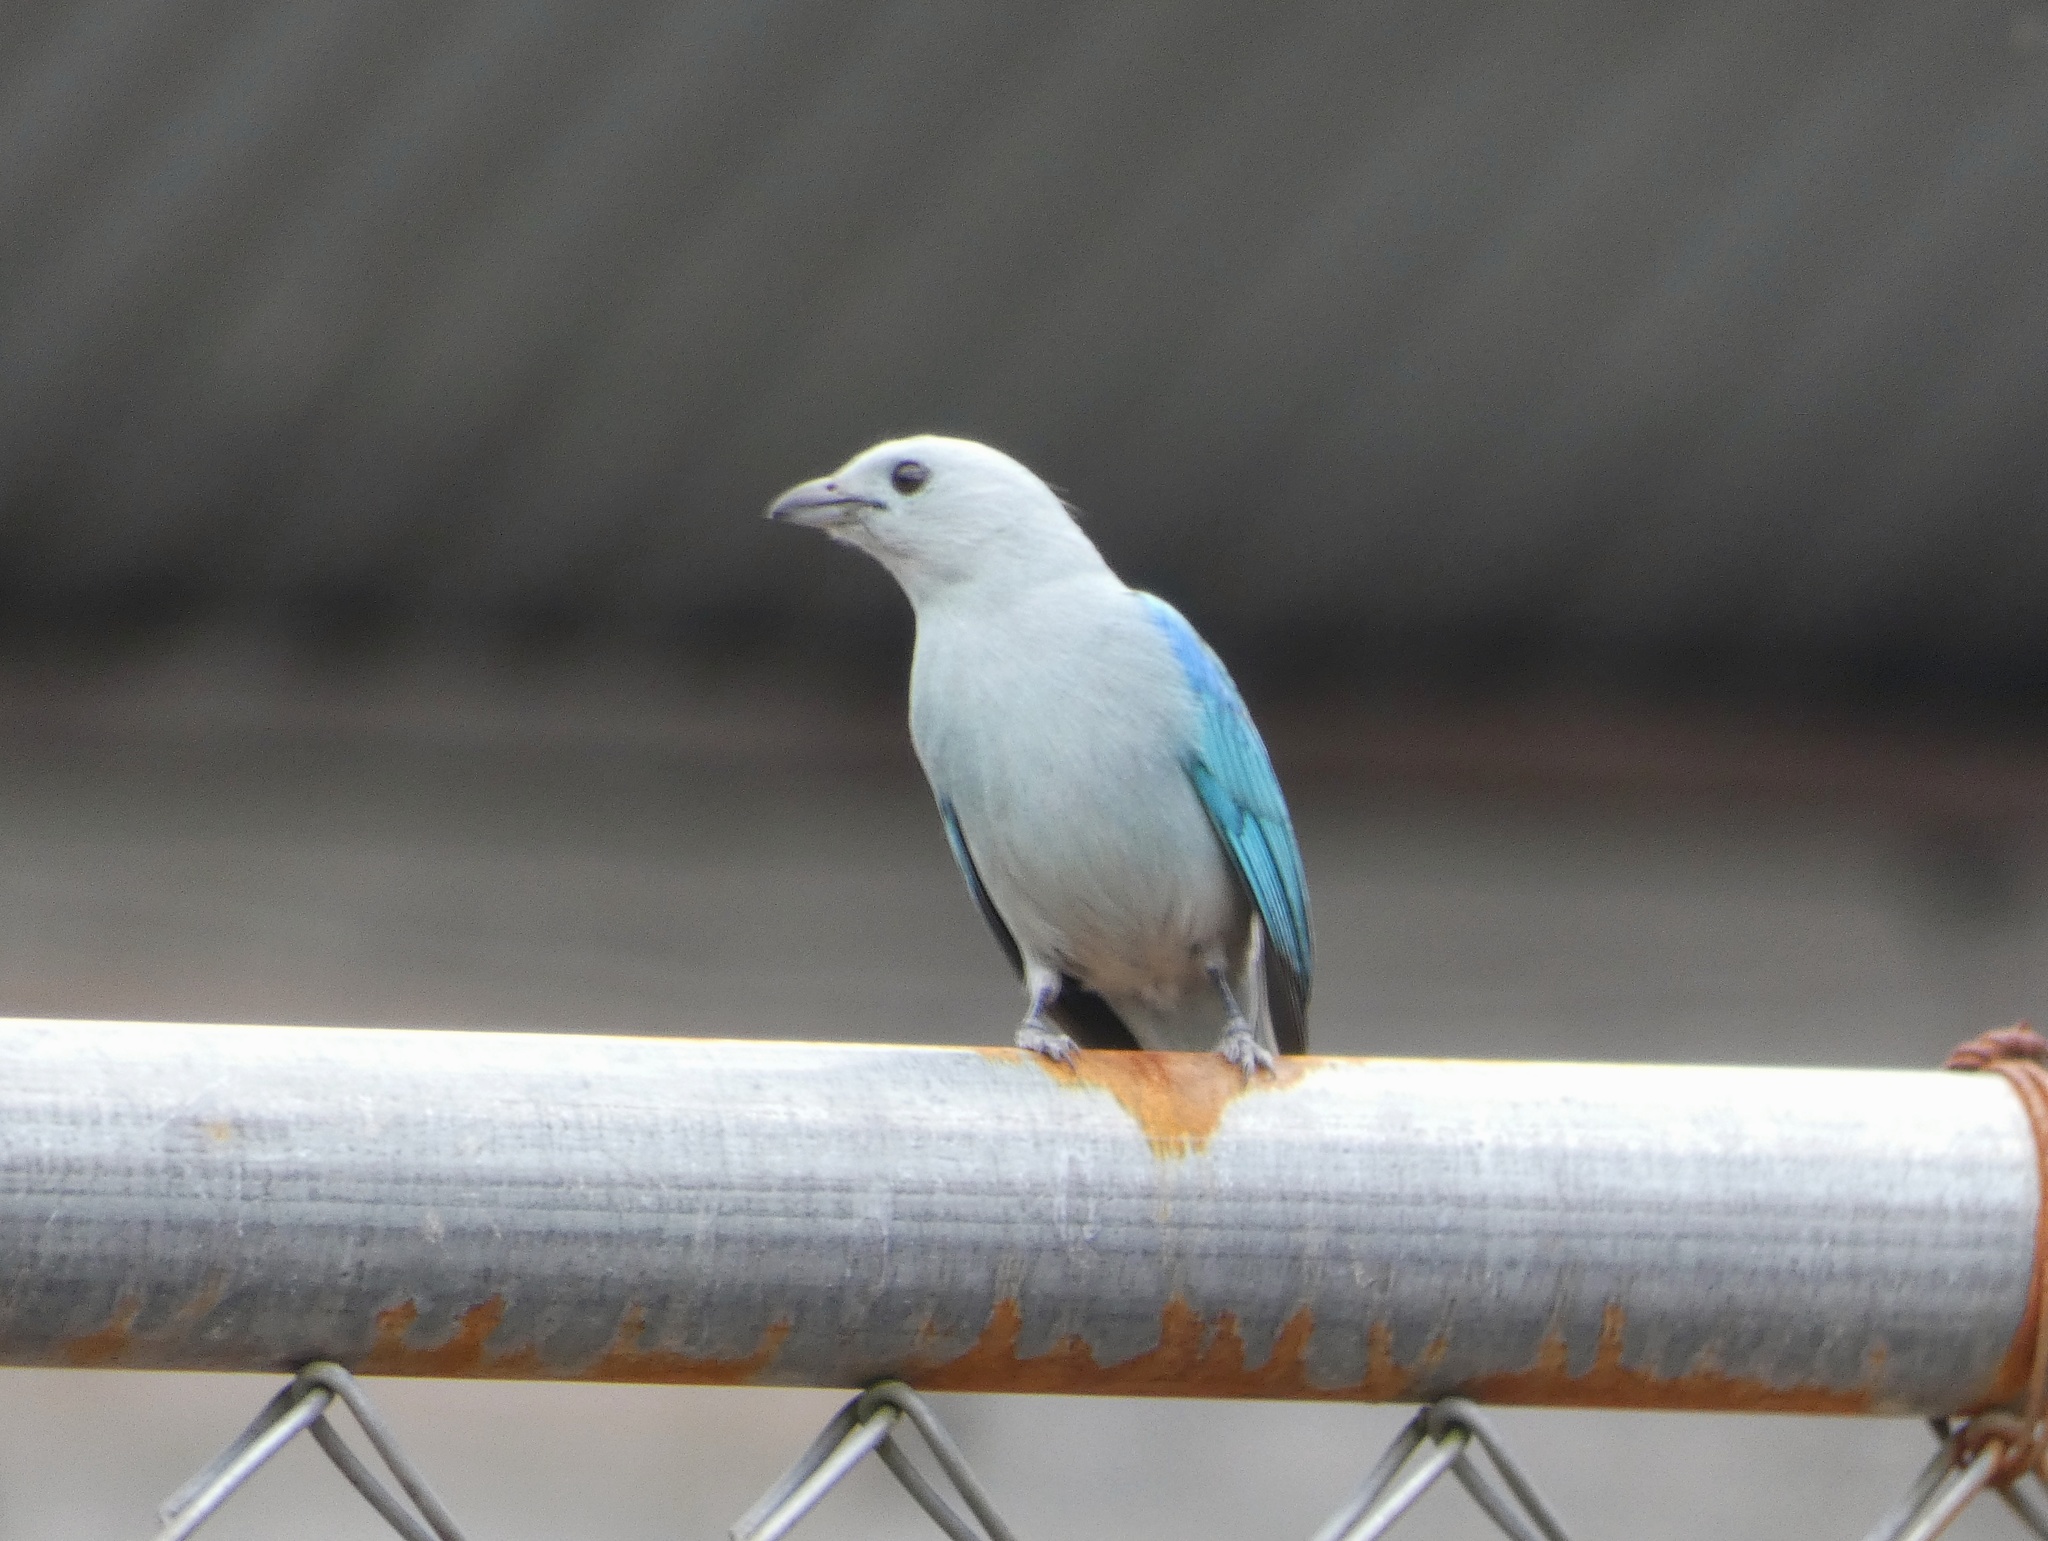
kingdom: Animalia
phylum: Chordata
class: Aves
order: Passeriformes
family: Thraupidae
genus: Thraupis
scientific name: Thraupis episcopus
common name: Blue-grey tanager
